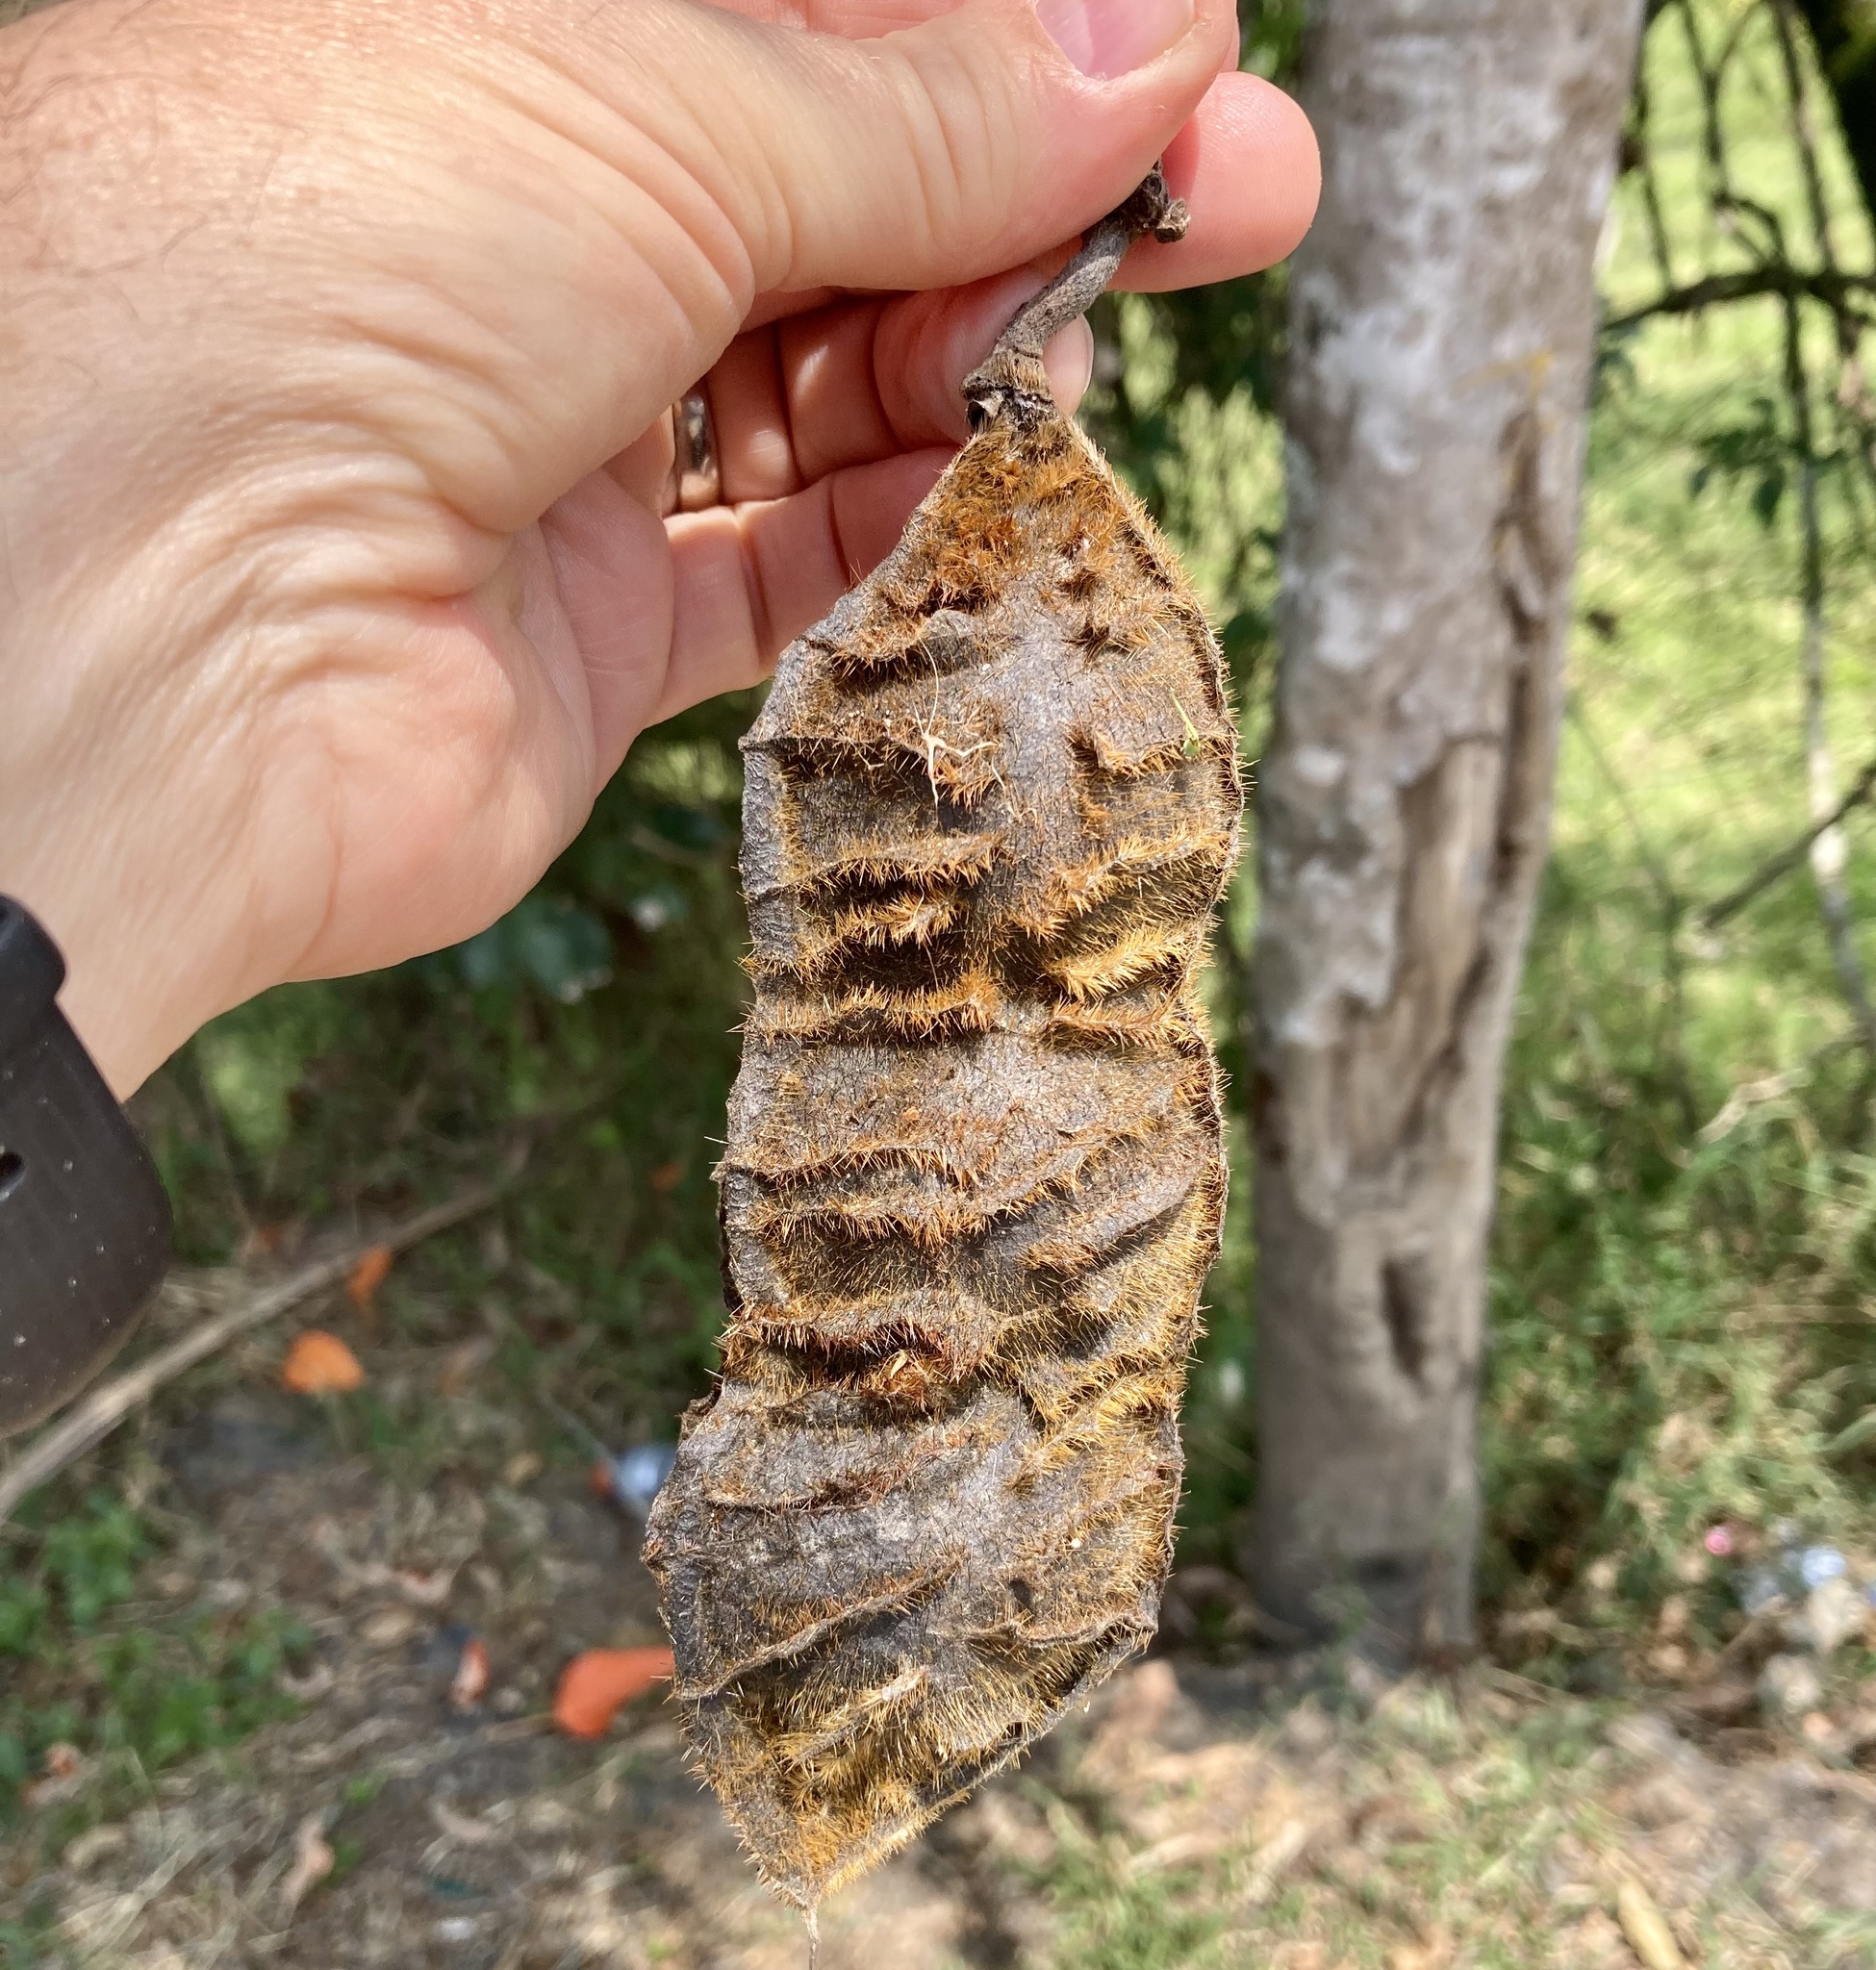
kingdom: Plantae
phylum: Tracheophyta
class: Magnoliopsida
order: Fabales
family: Fabaceae
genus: Mucuna
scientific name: Mucuna urens
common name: Red hamburger bean
